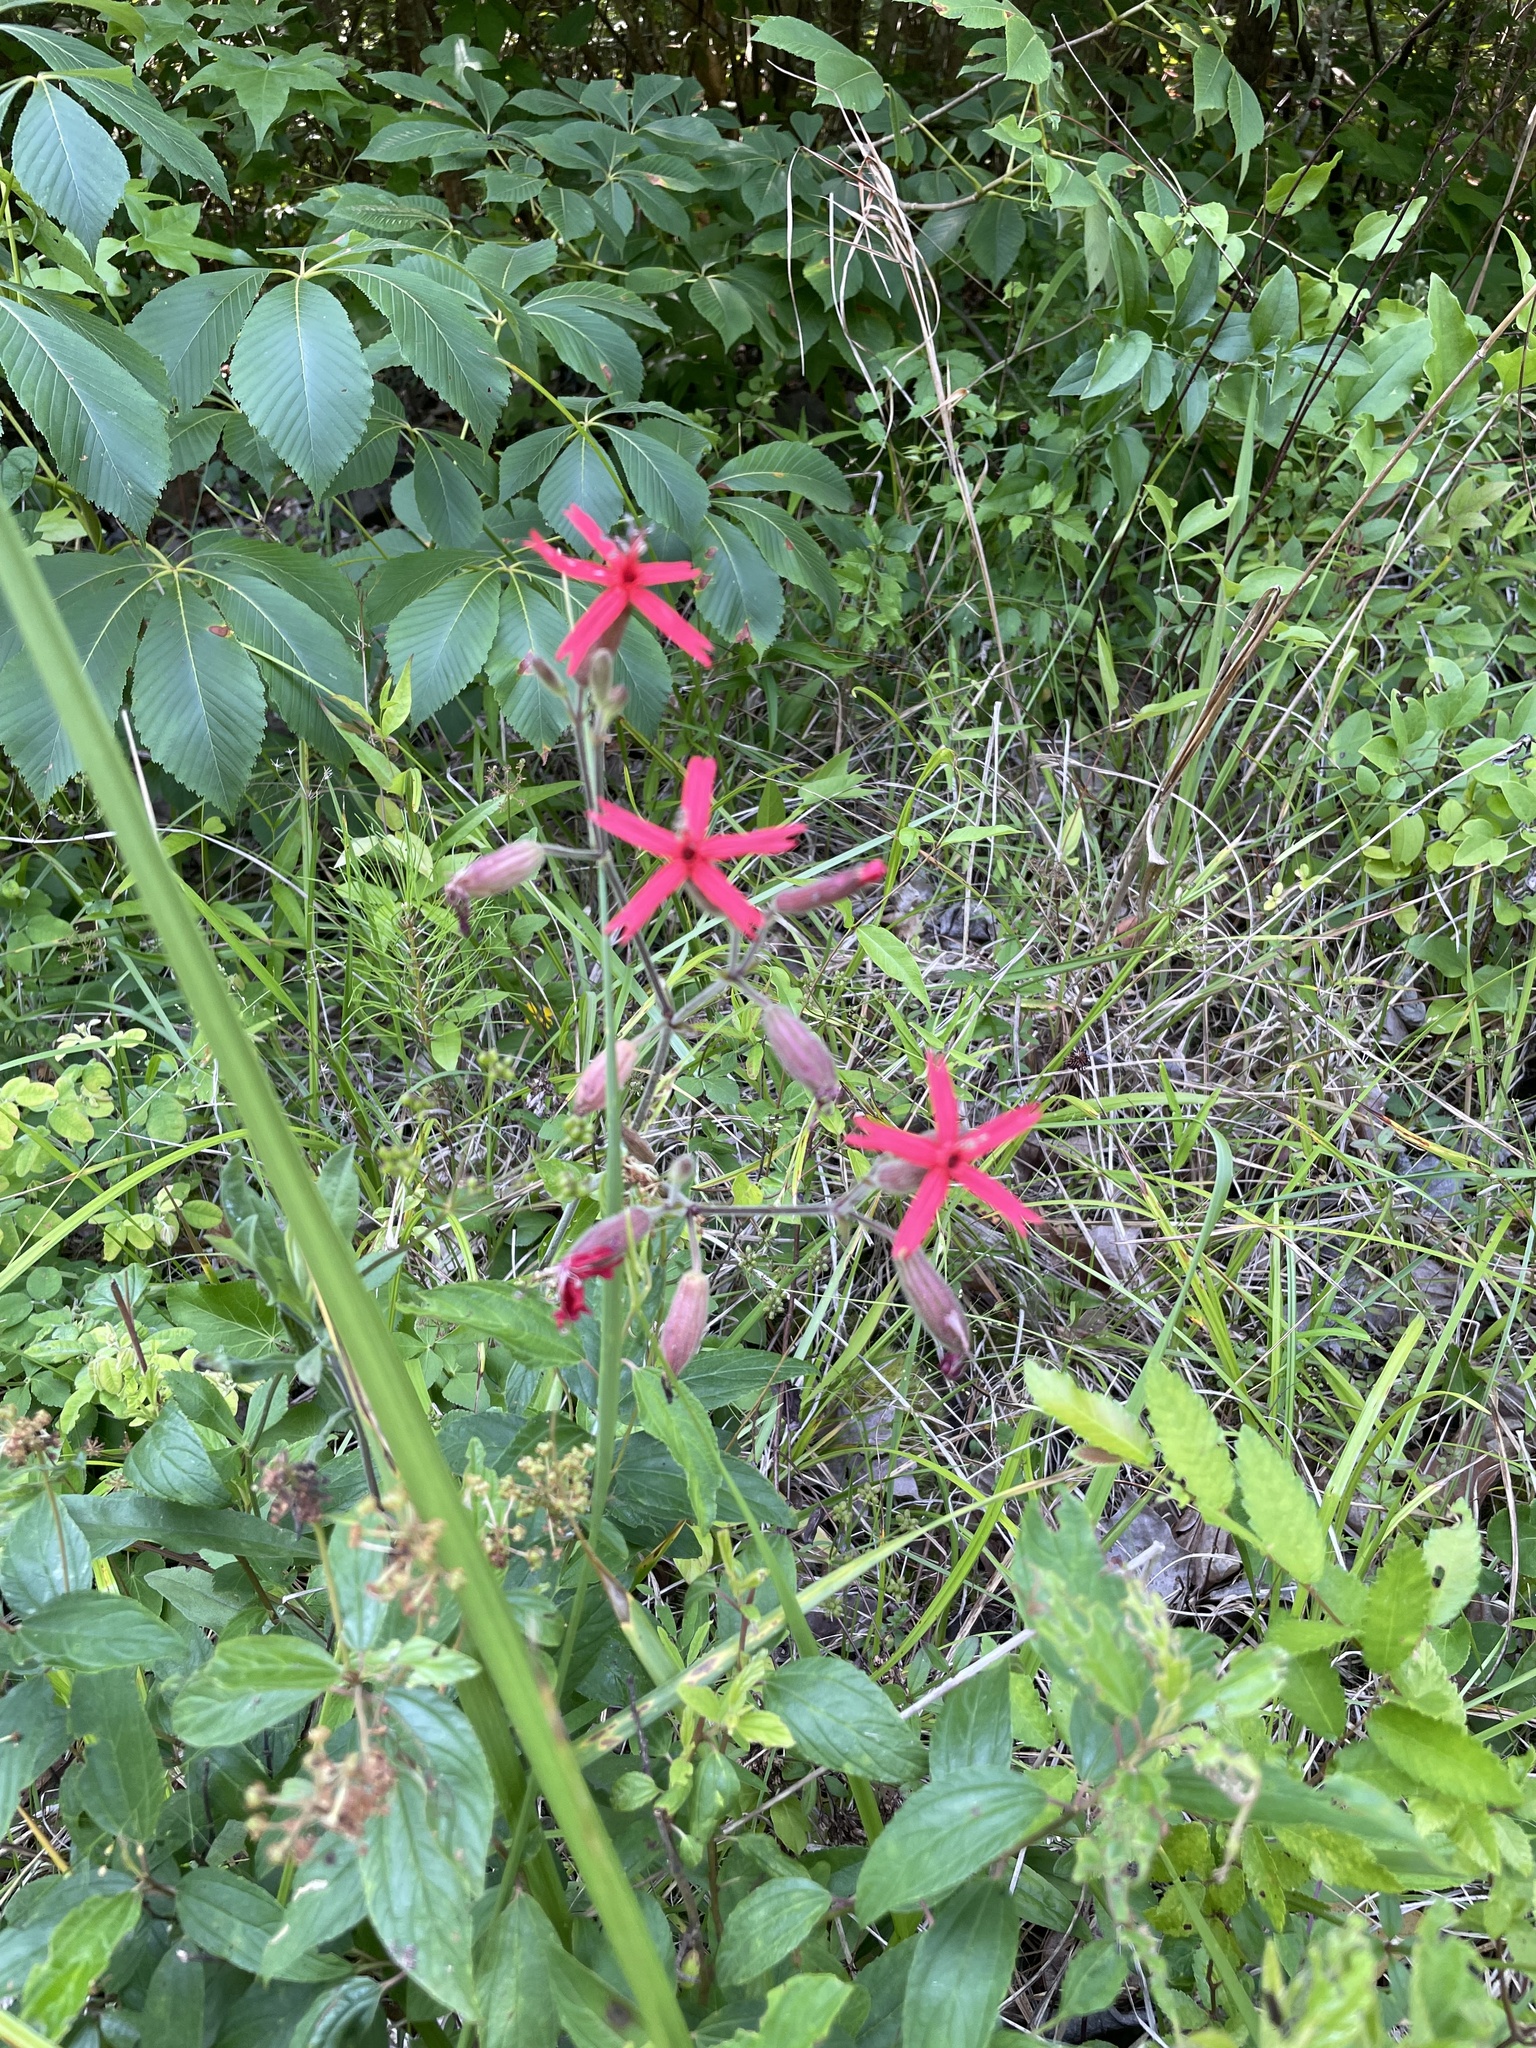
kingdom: Plantae
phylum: Tracheophyta
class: Magnoliopsida
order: Caryophyllales
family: Caryophyllaceae
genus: Silene
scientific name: Silene virginica
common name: Fire-pink
